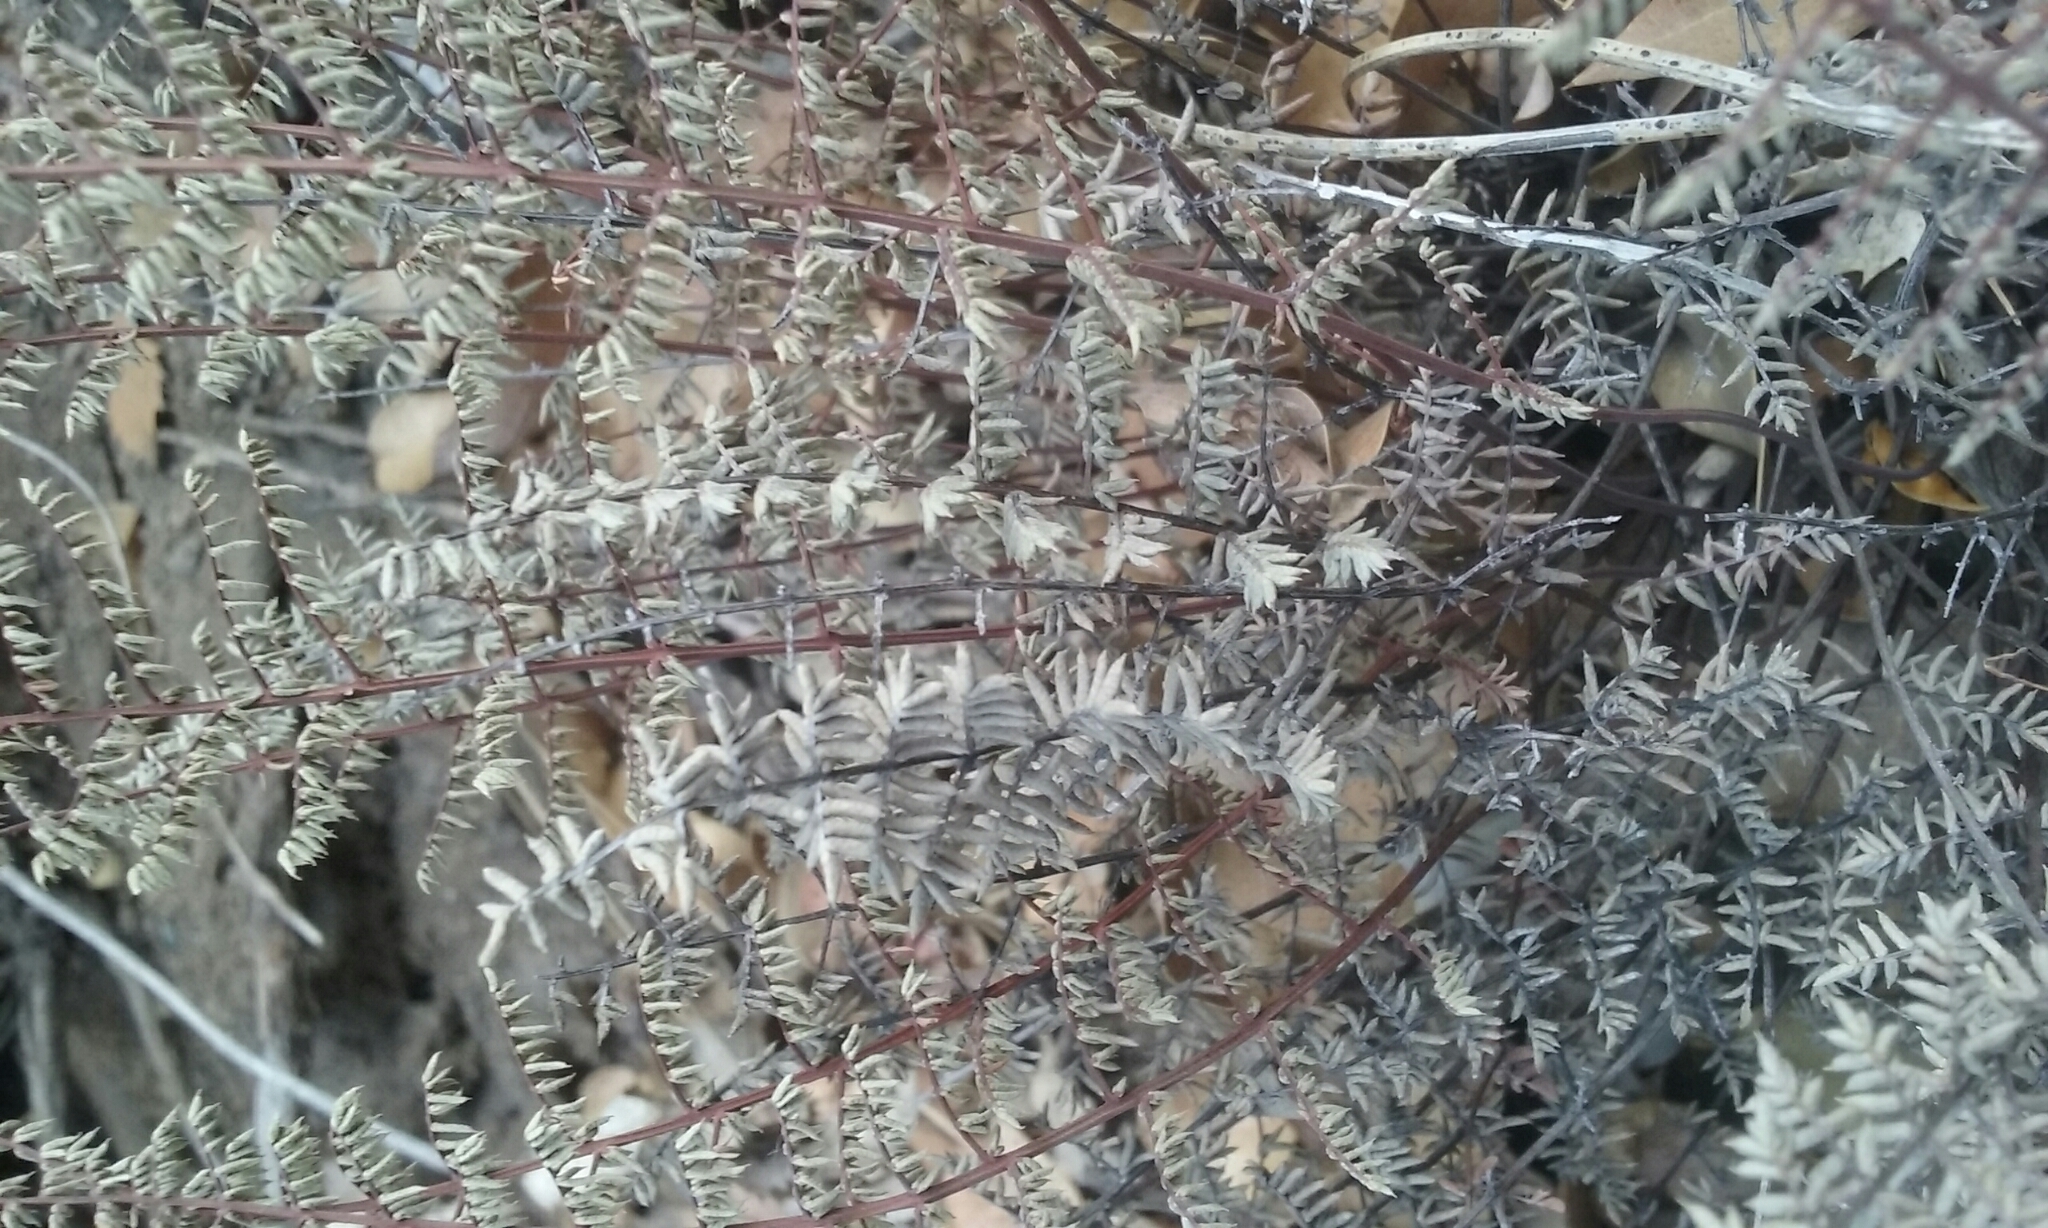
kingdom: Plantae
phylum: Tracheophyta
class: Polypodiopsida
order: Polypodiales
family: Pteridaceae
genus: Pellaea
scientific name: Pellaea mucronata
